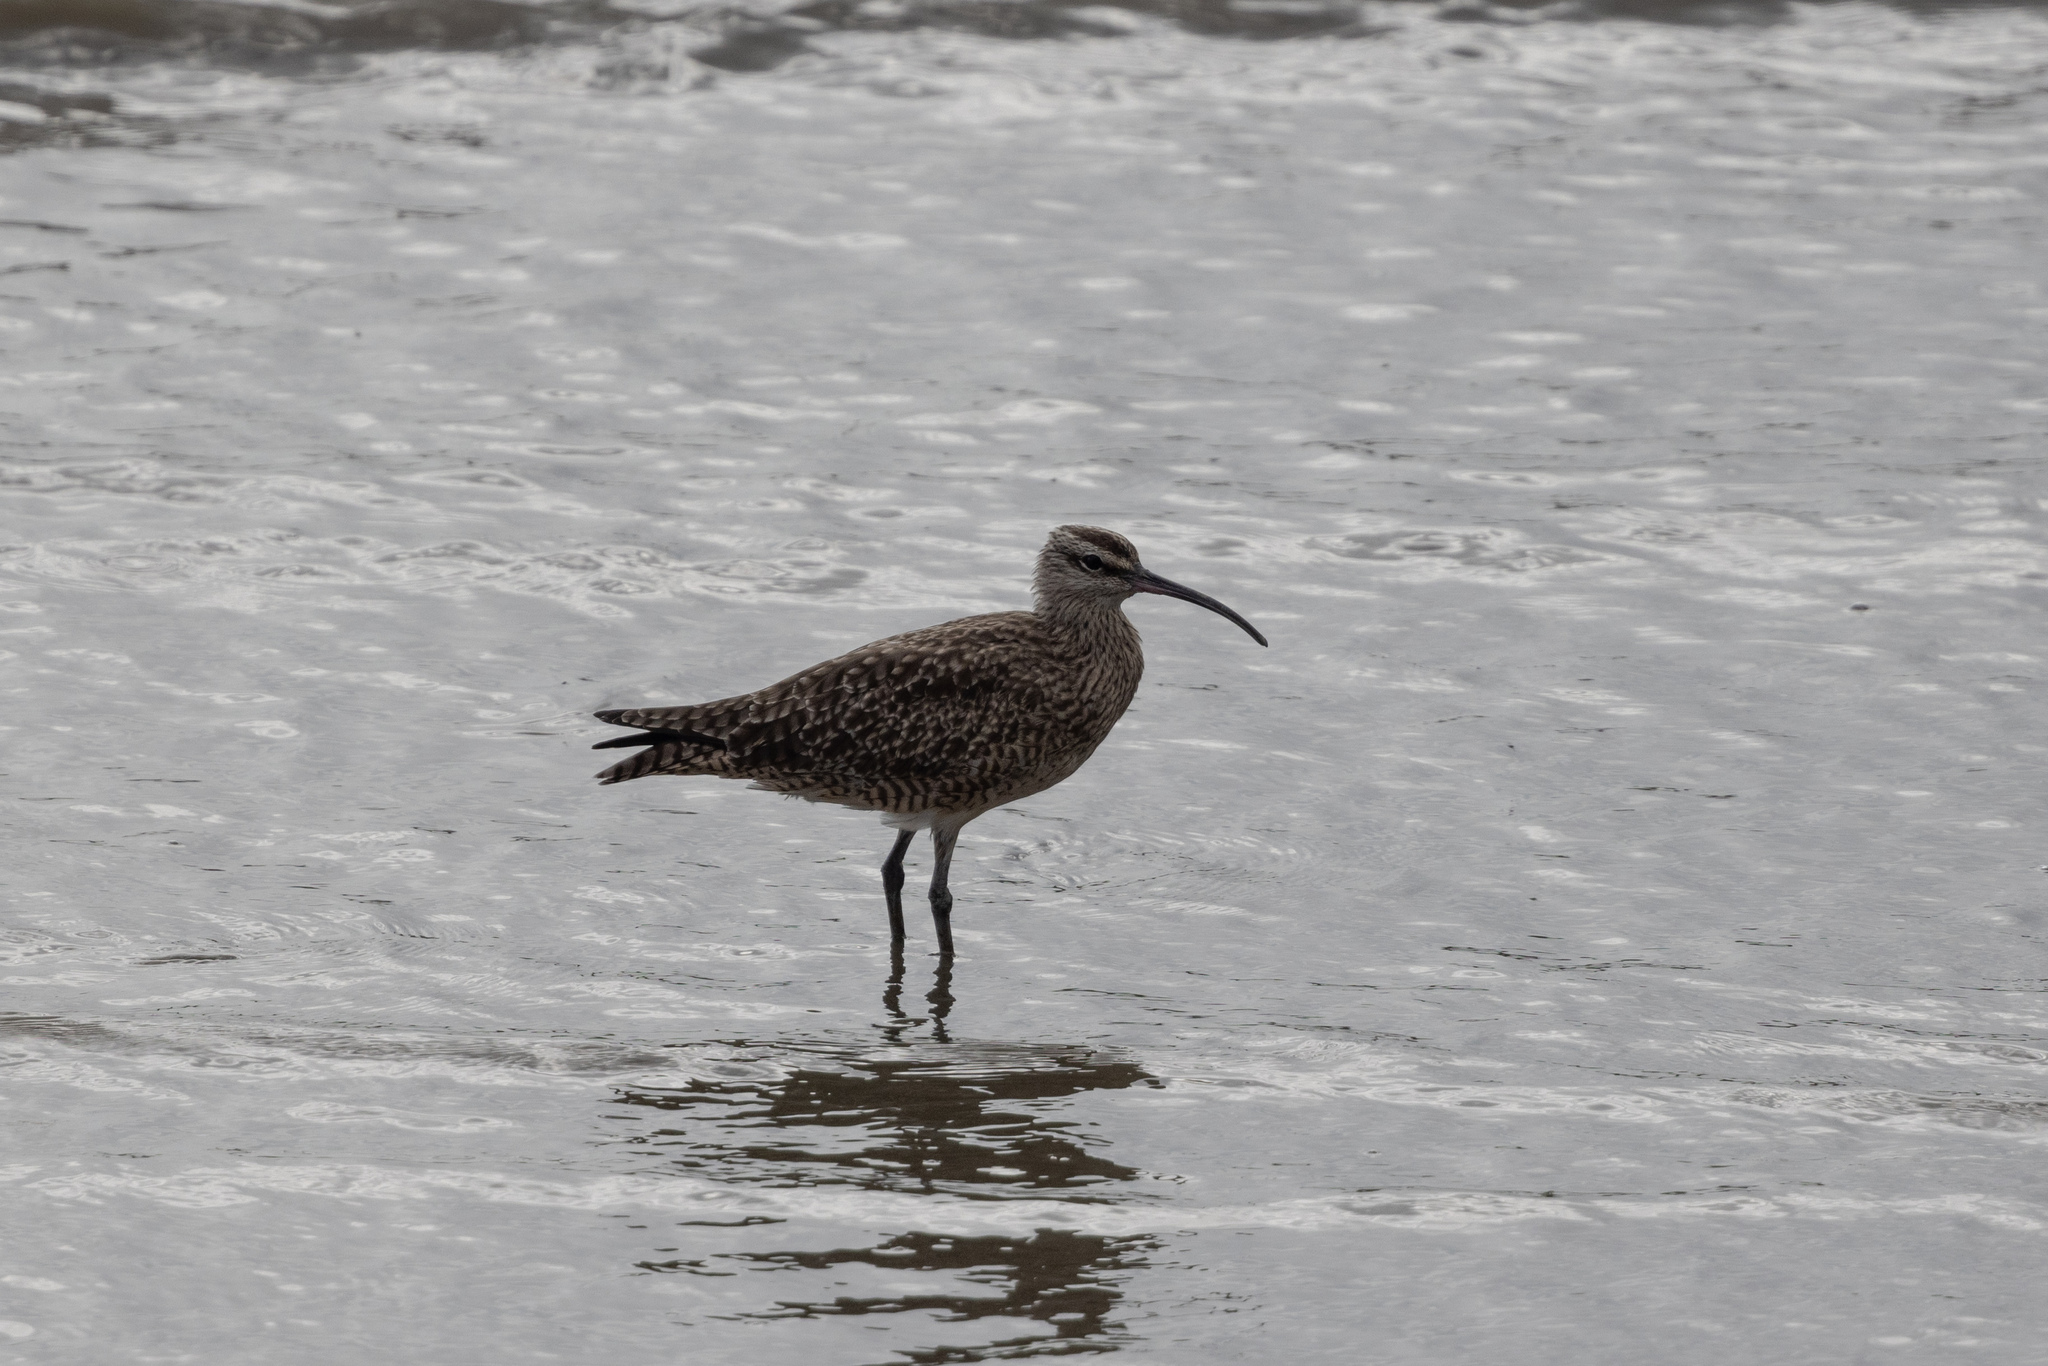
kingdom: Animalia
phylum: Chordata
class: Aves
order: Charadriiformes
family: Scolopacidae
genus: Numenius
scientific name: Numenius phaeopus
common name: Whimbrel
